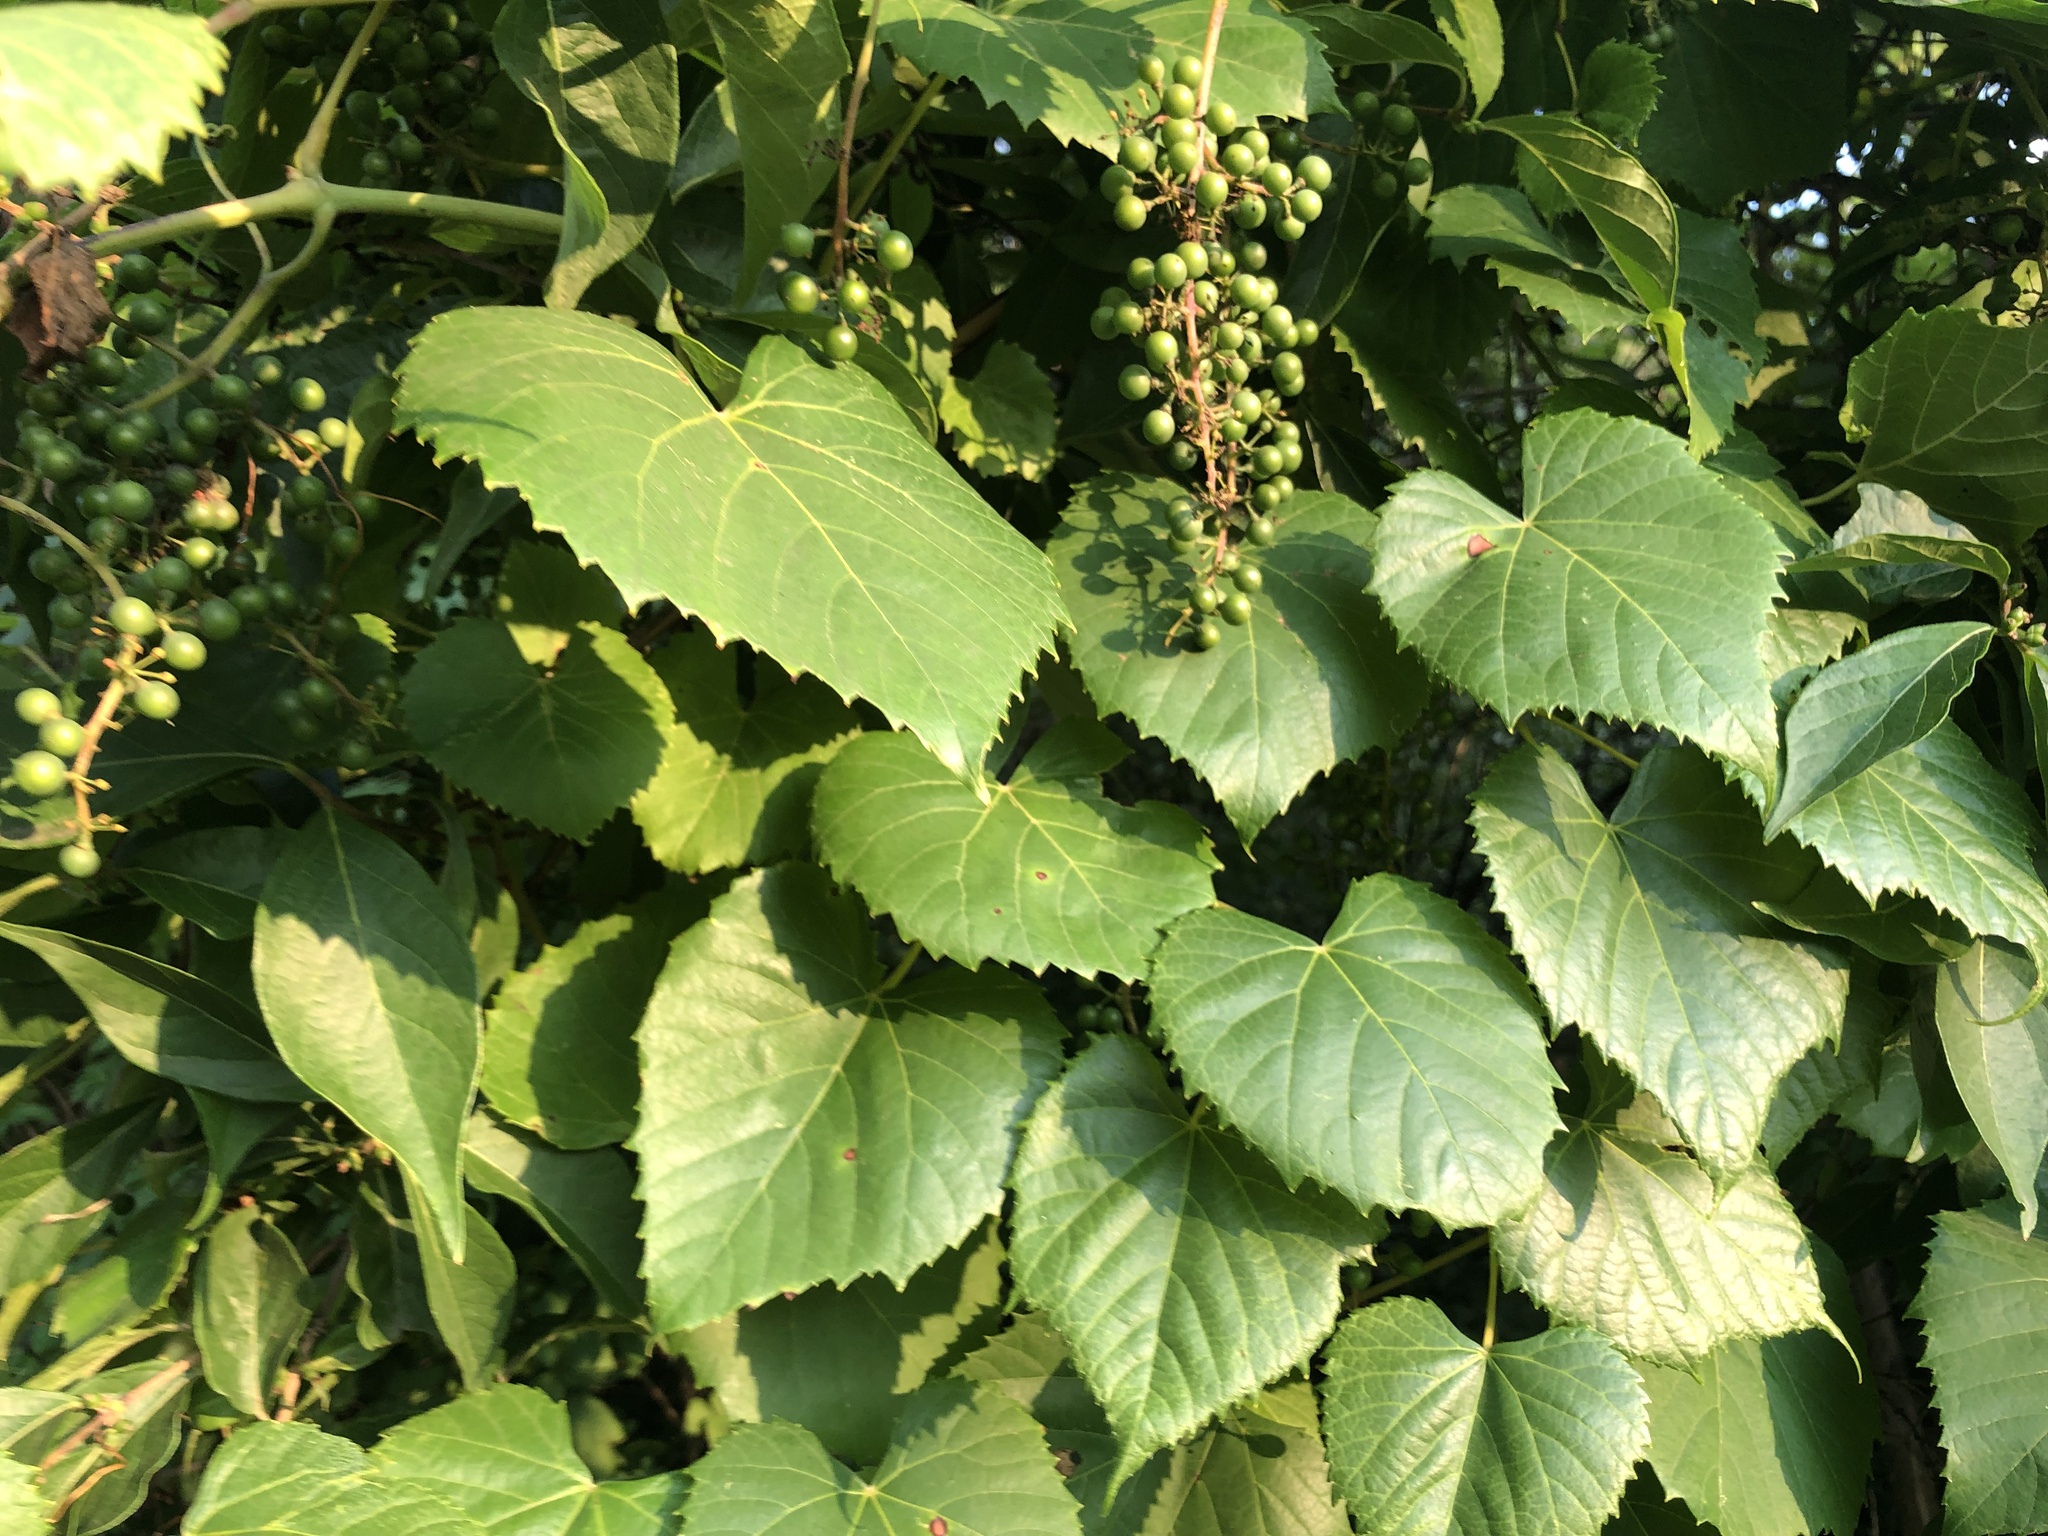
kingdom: Plantae
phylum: Tracheophyta
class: Magnoliopsida
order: Vitales
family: Vitaceae
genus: Vitis
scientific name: Vitis vulpina
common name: Frost grape
